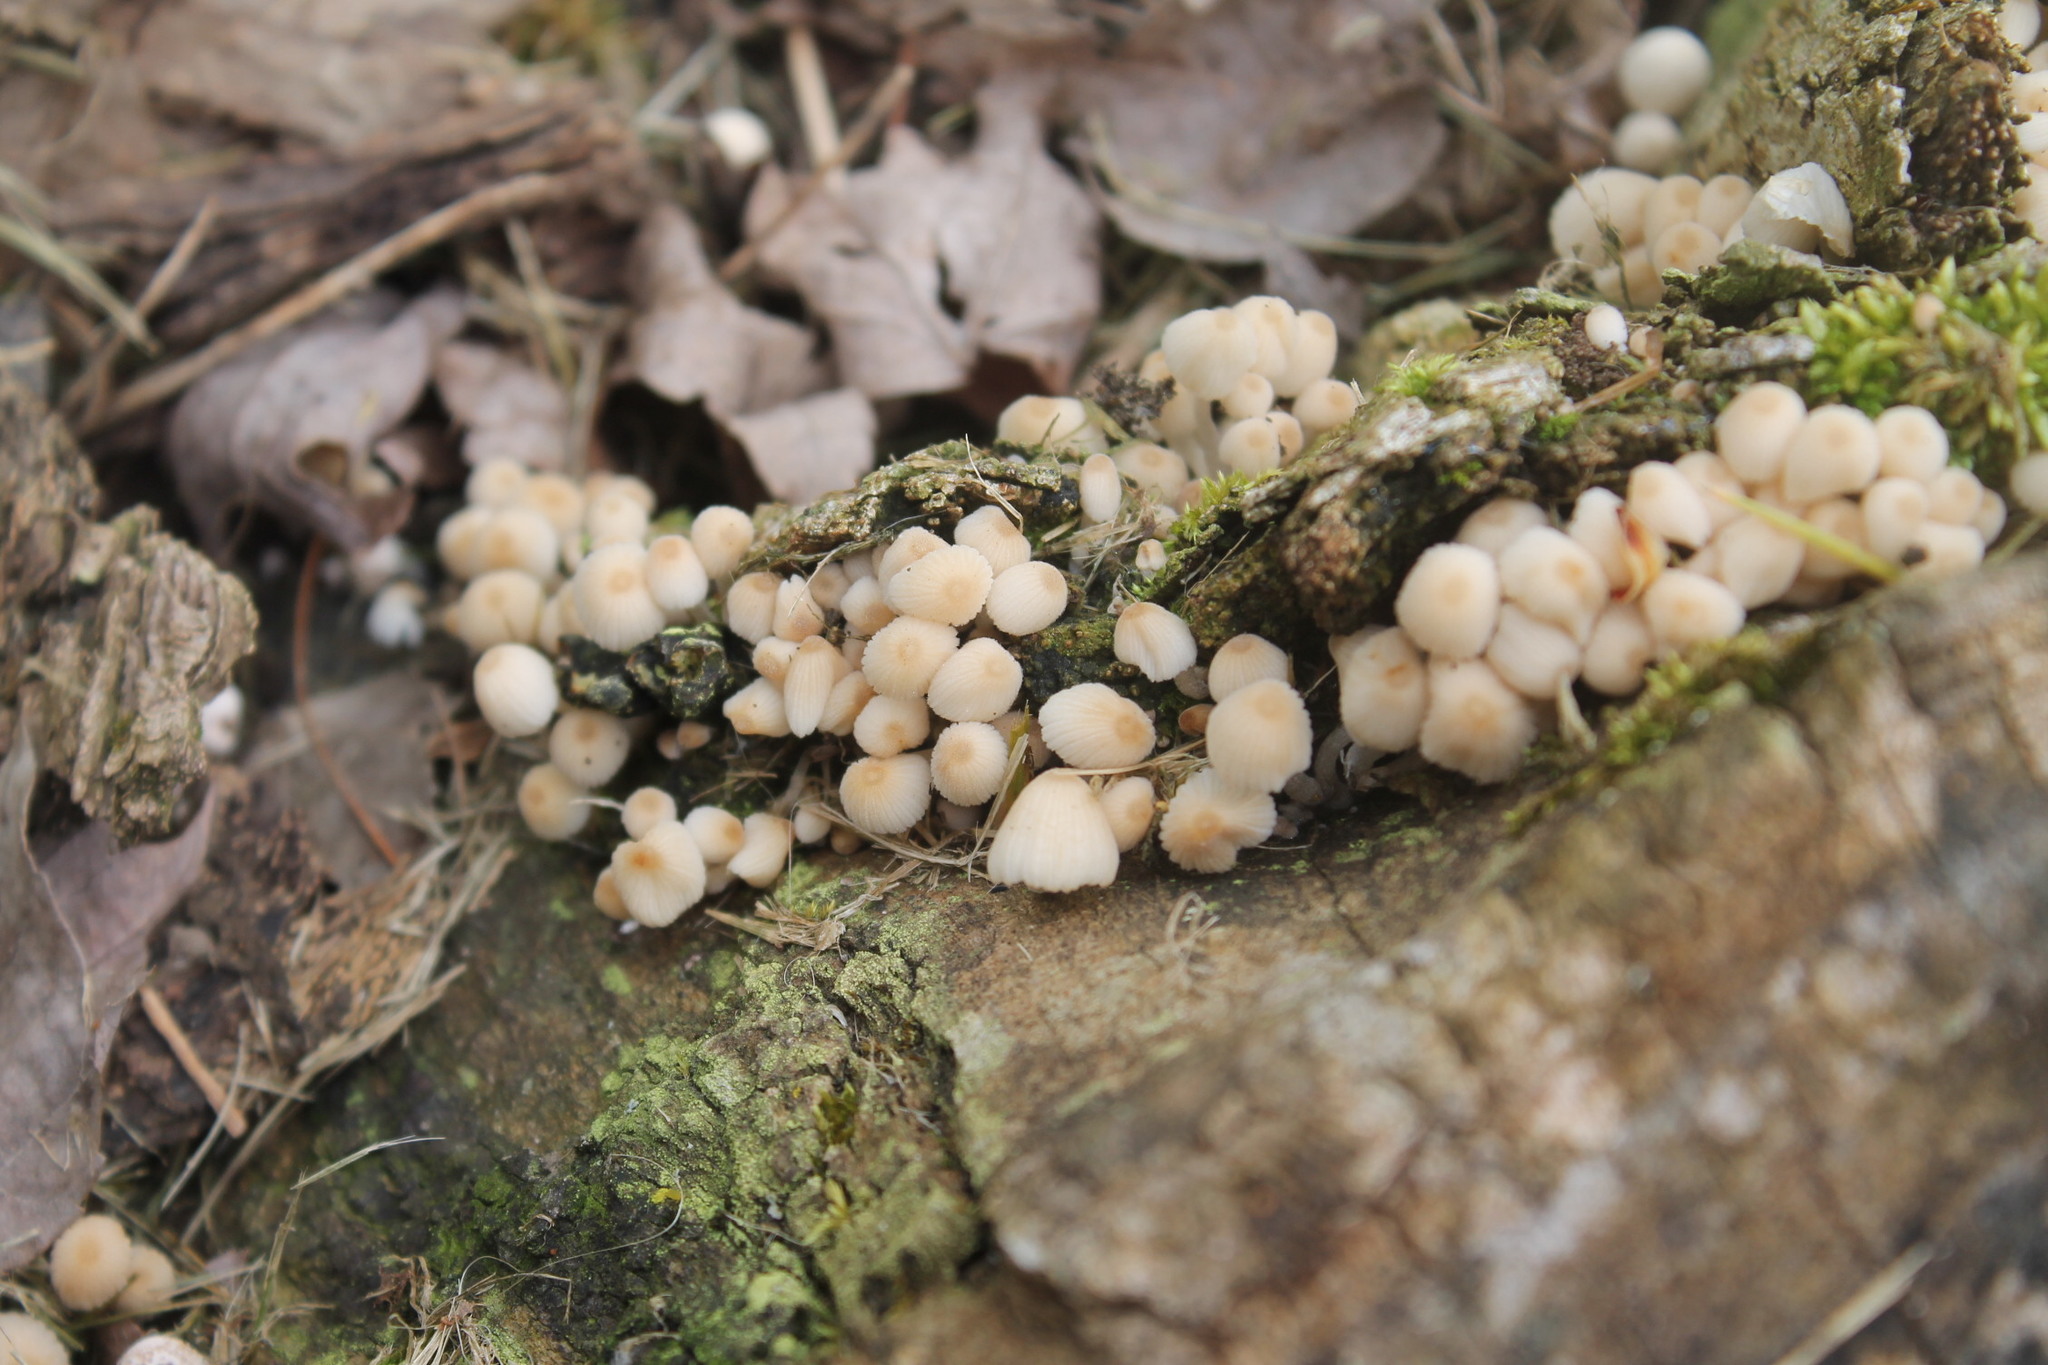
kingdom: Fungi
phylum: Basidiomycota
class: Agaricomycetes
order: Agaricales
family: Psathyrellaceae
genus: Coprinellus
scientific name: Coprinellus disseminatus
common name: Fairies' bonnets
